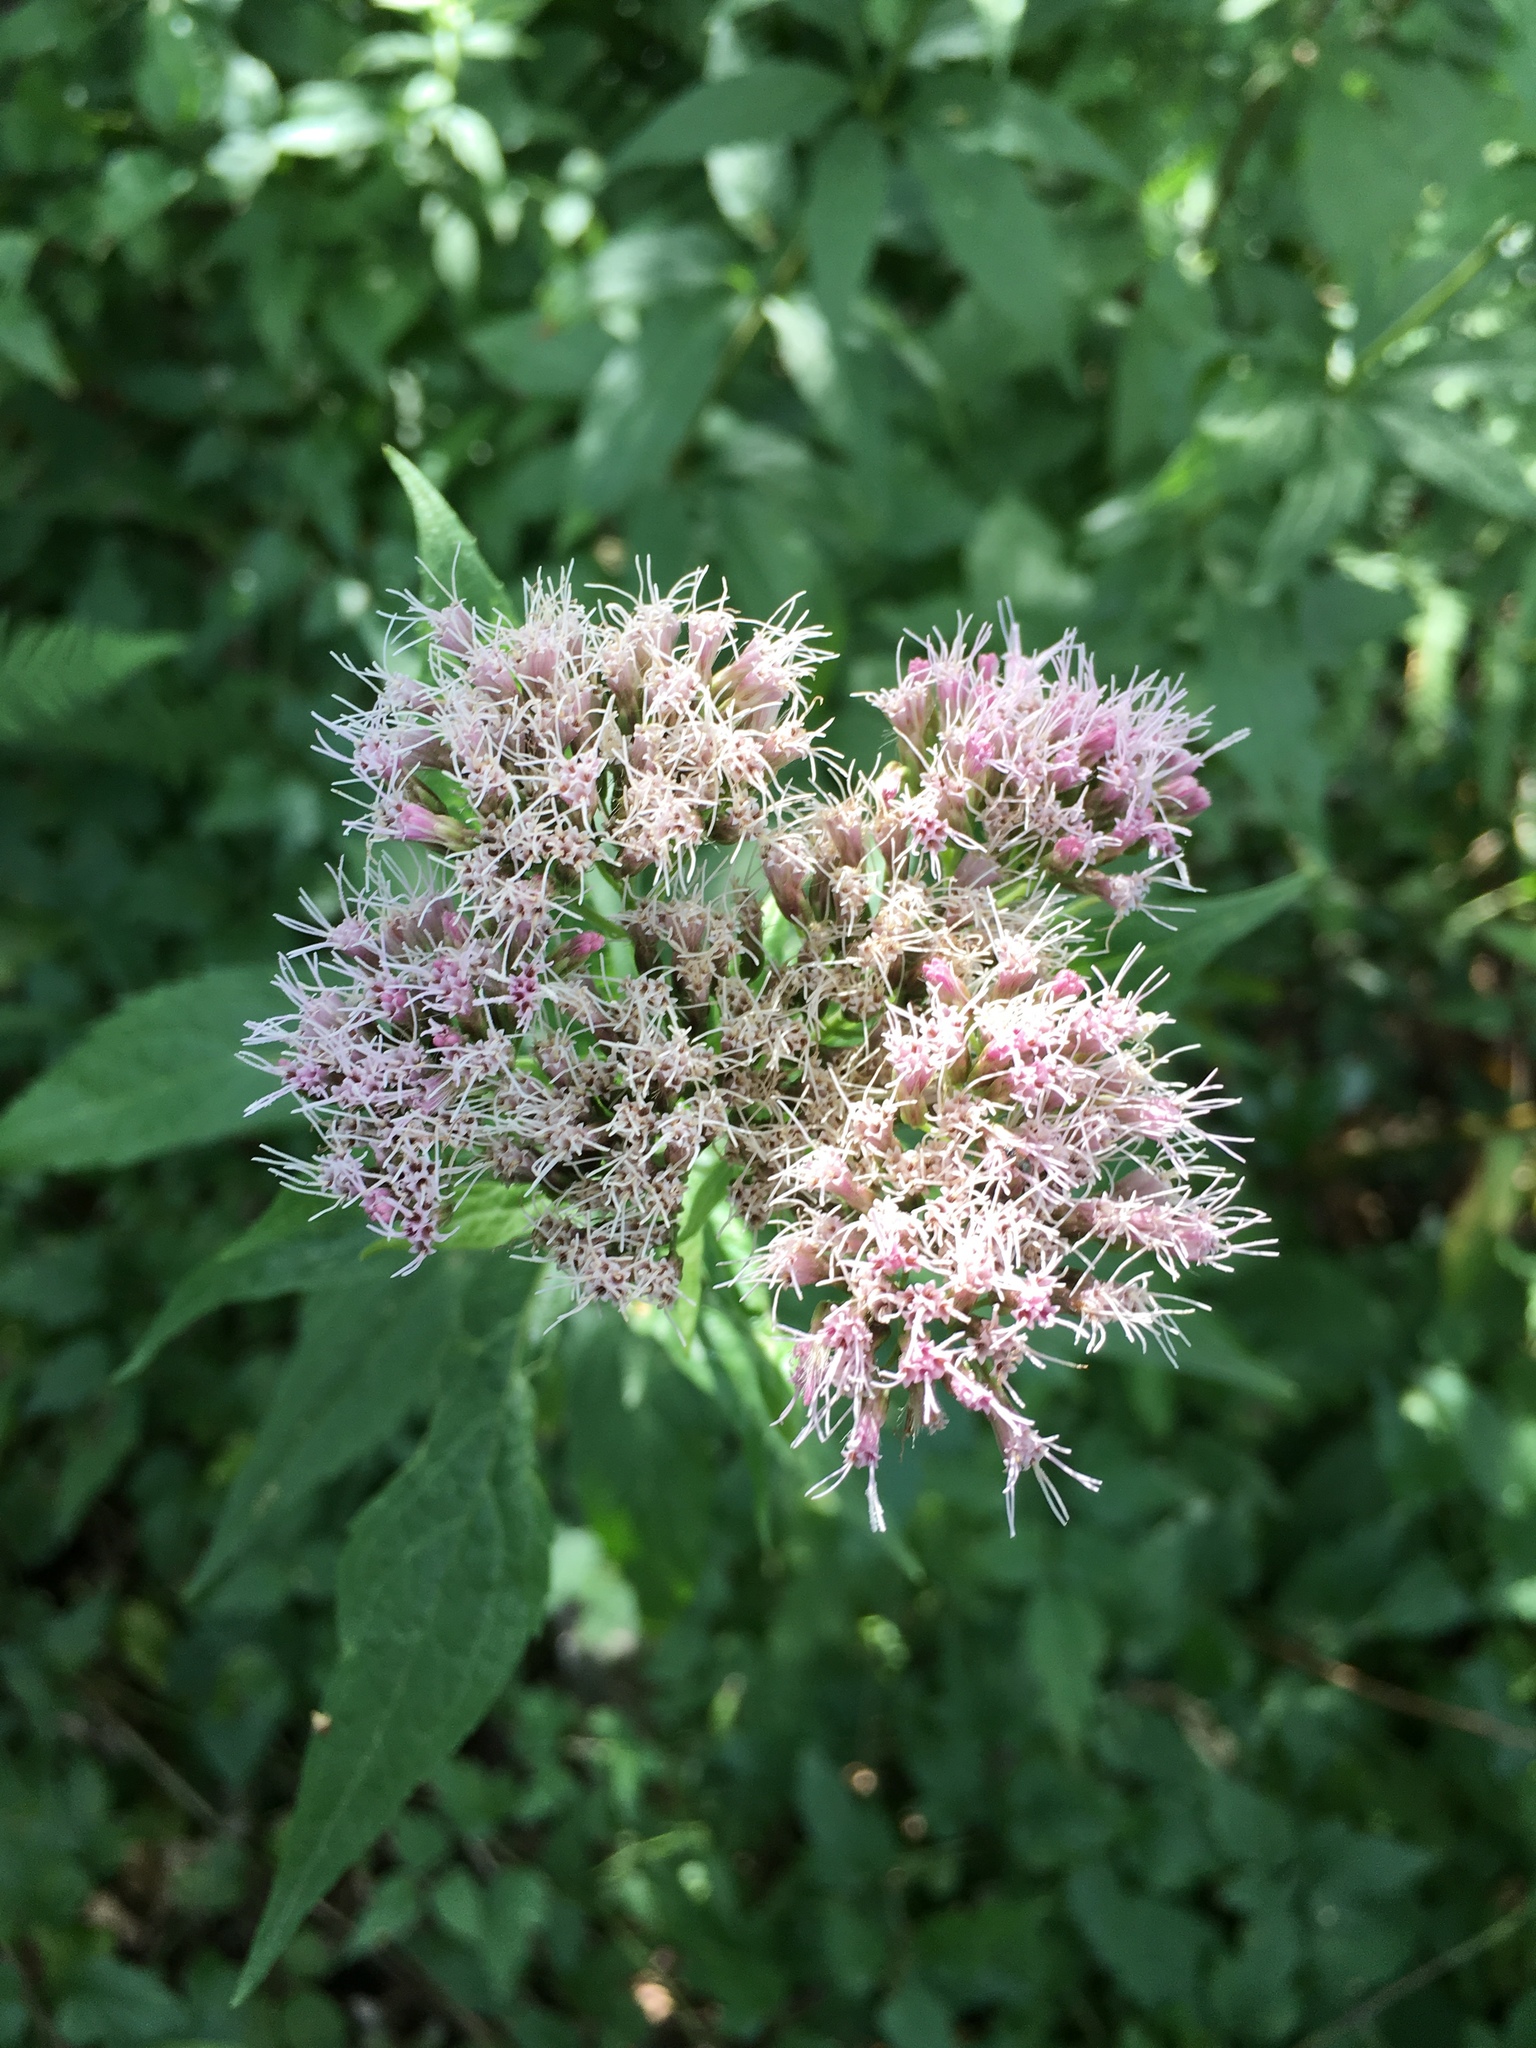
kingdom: Plantae
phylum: Tracheophyta
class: Magnoliopsida
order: Asterales
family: Asteraceae
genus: Eupatorium
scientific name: Eupatorium cannabinum
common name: Hemp-agrimony
